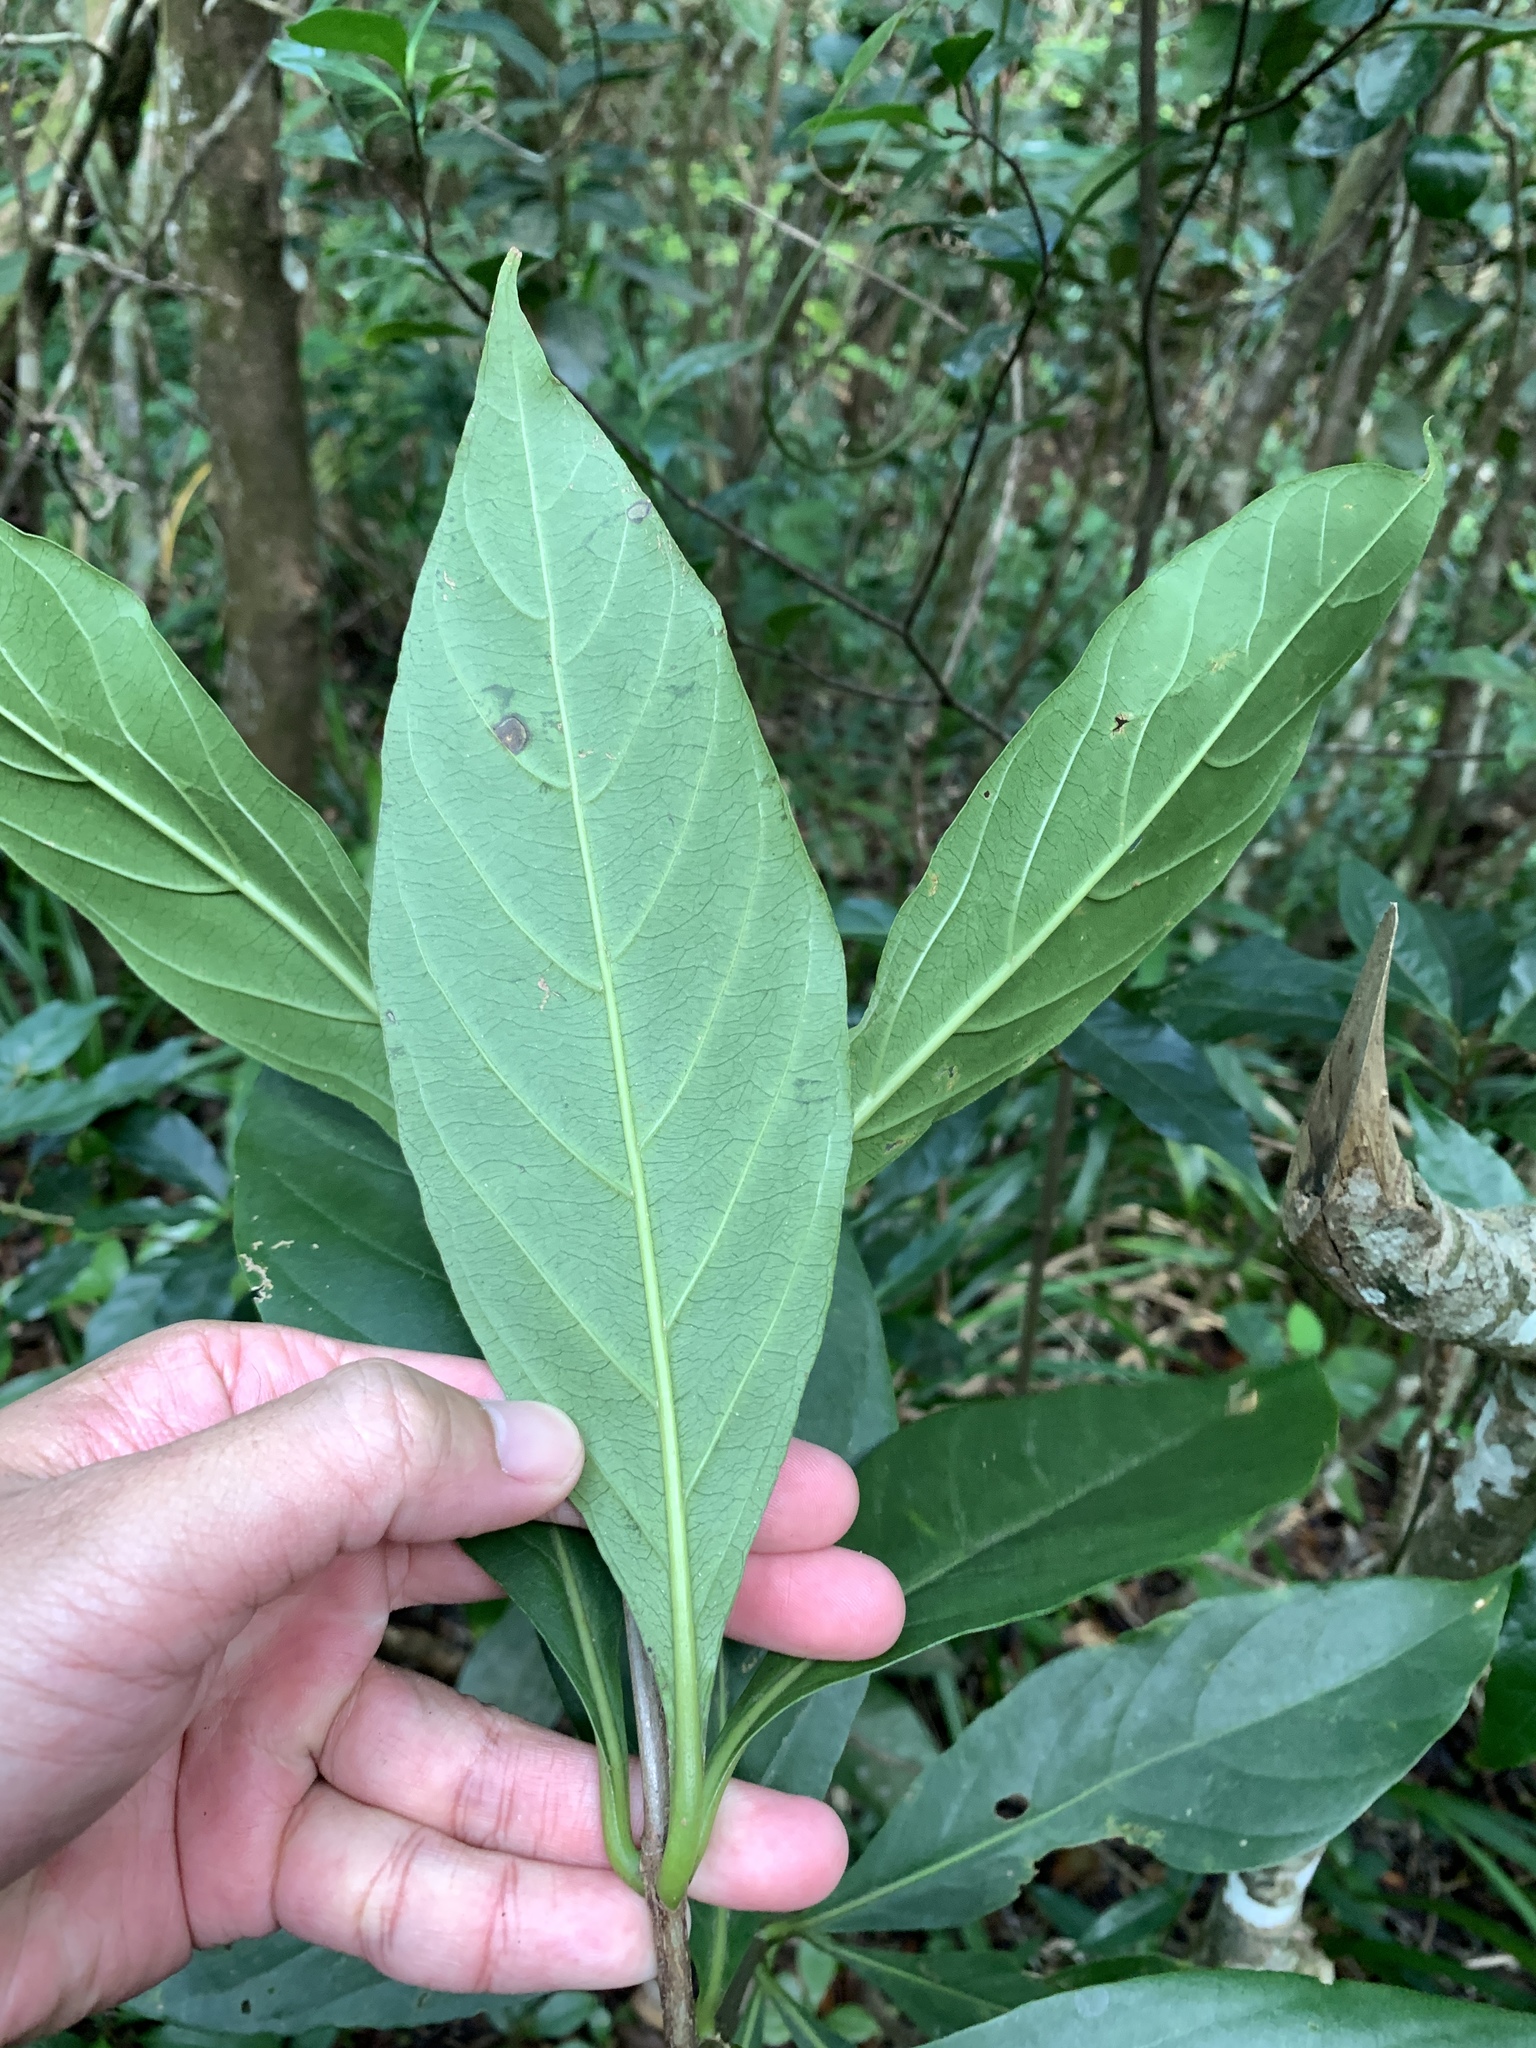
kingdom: Plantae
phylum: Tracheophyta
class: Magnoliopsida
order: Gentianales
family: Rubiaceae
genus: Timonius
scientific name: Timonius arboreus
